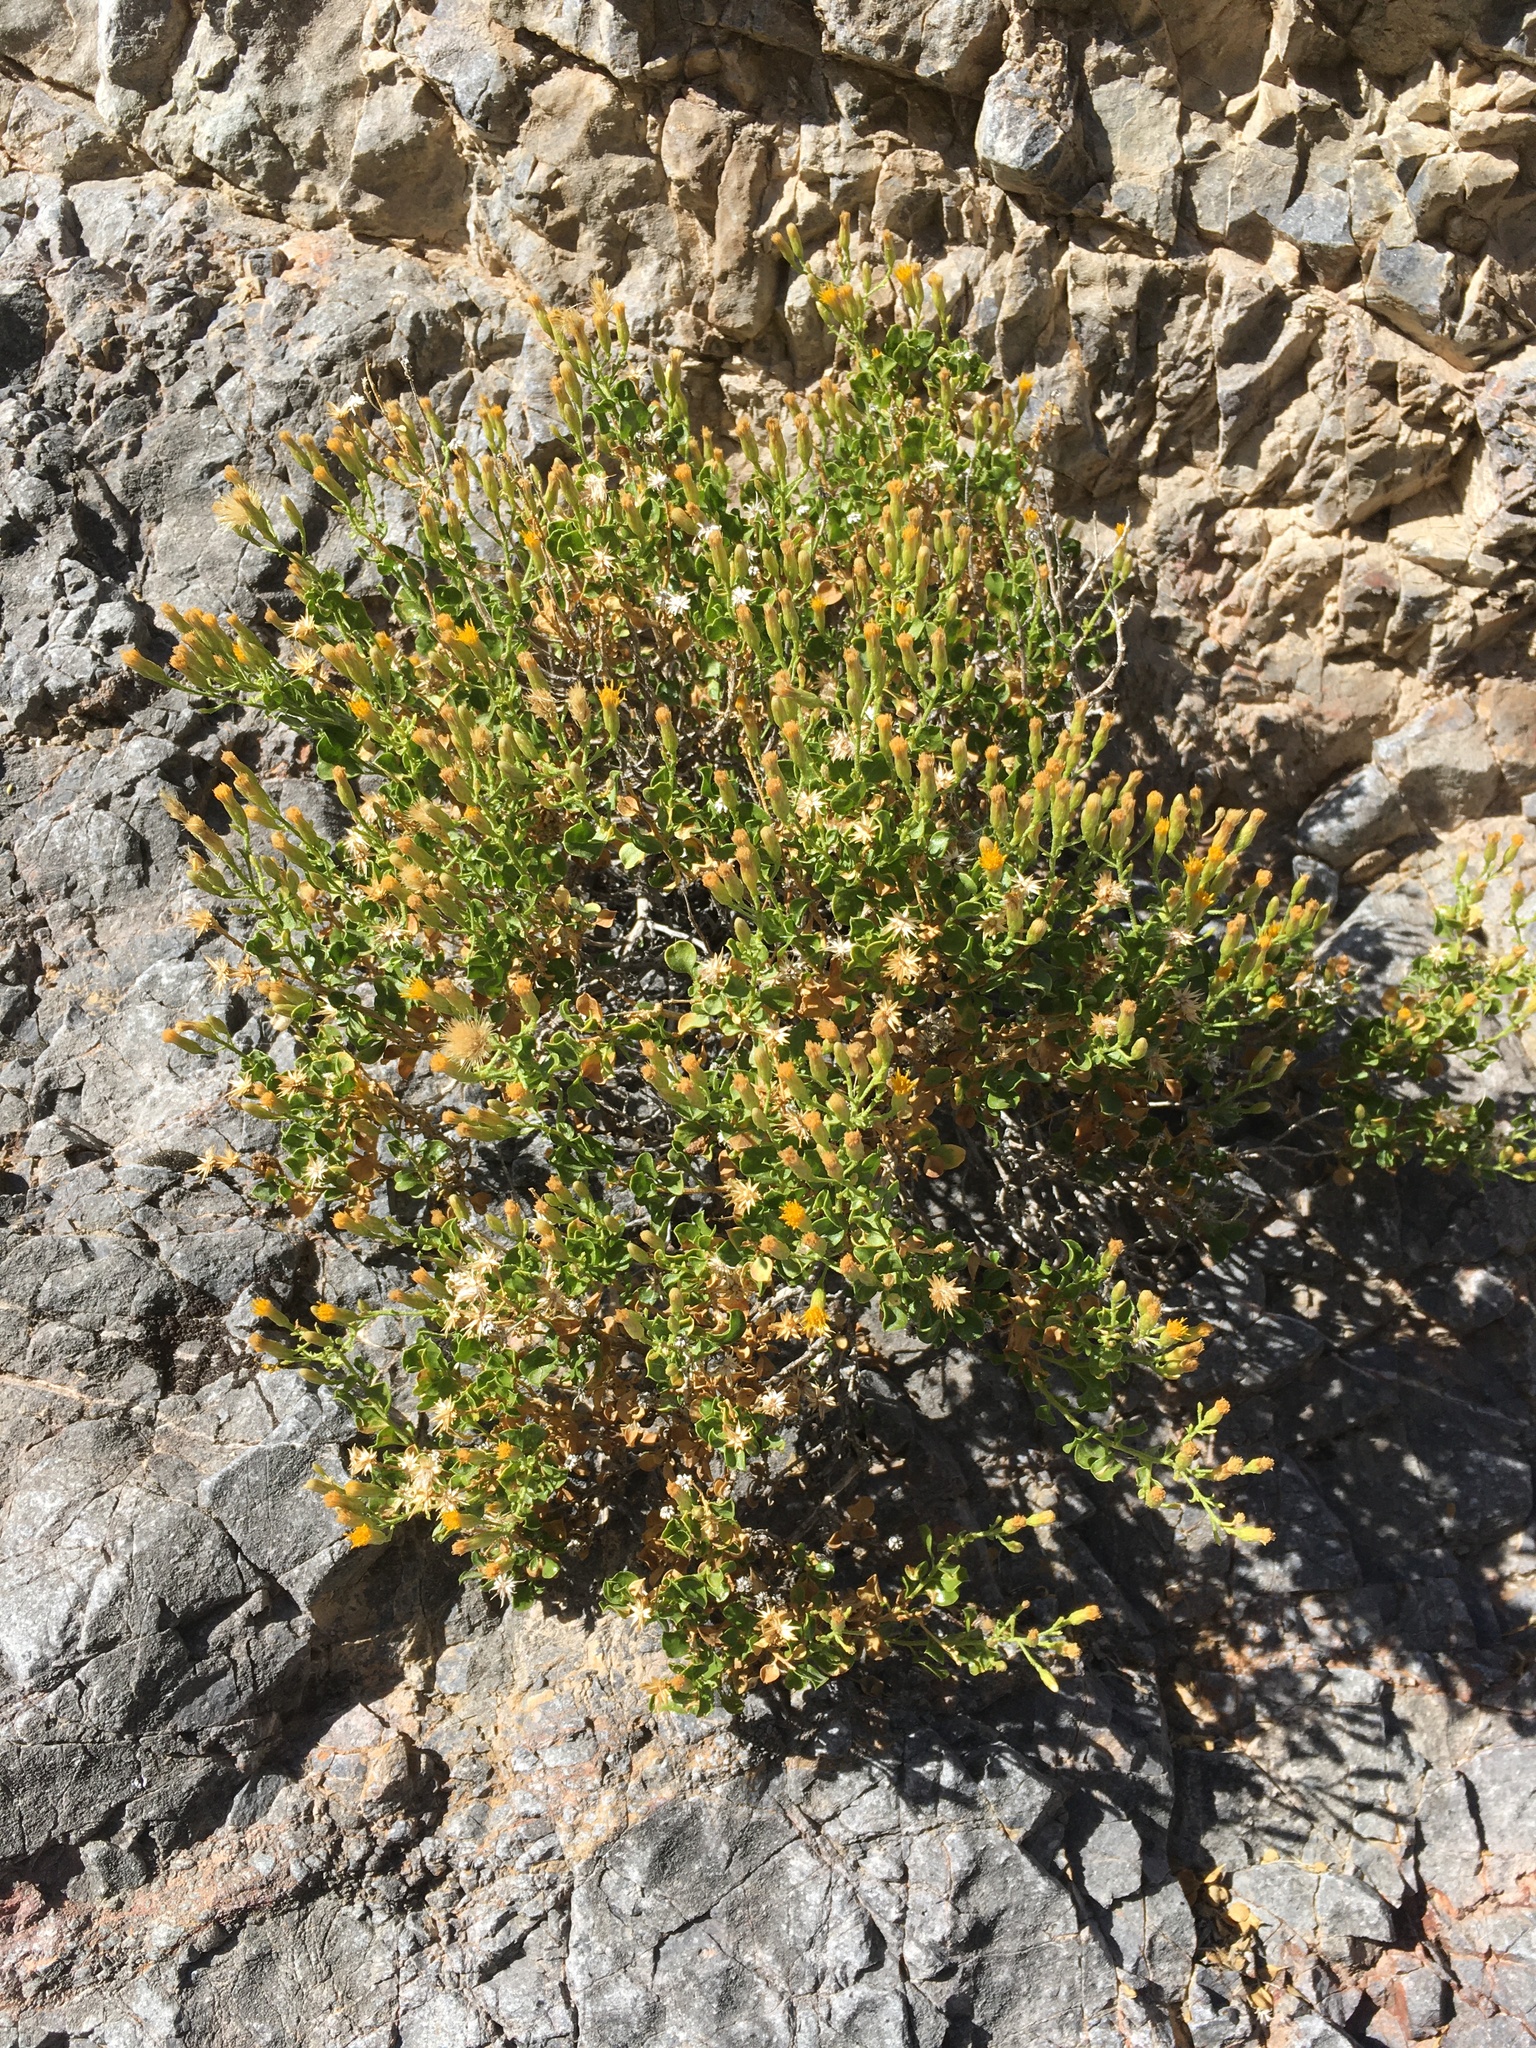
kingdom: Plantae
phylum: Tracheophyta
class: Magnoliopsida
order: Asterales
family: Asteraceae
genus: Ericameria
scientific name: Ericameria cuneata
